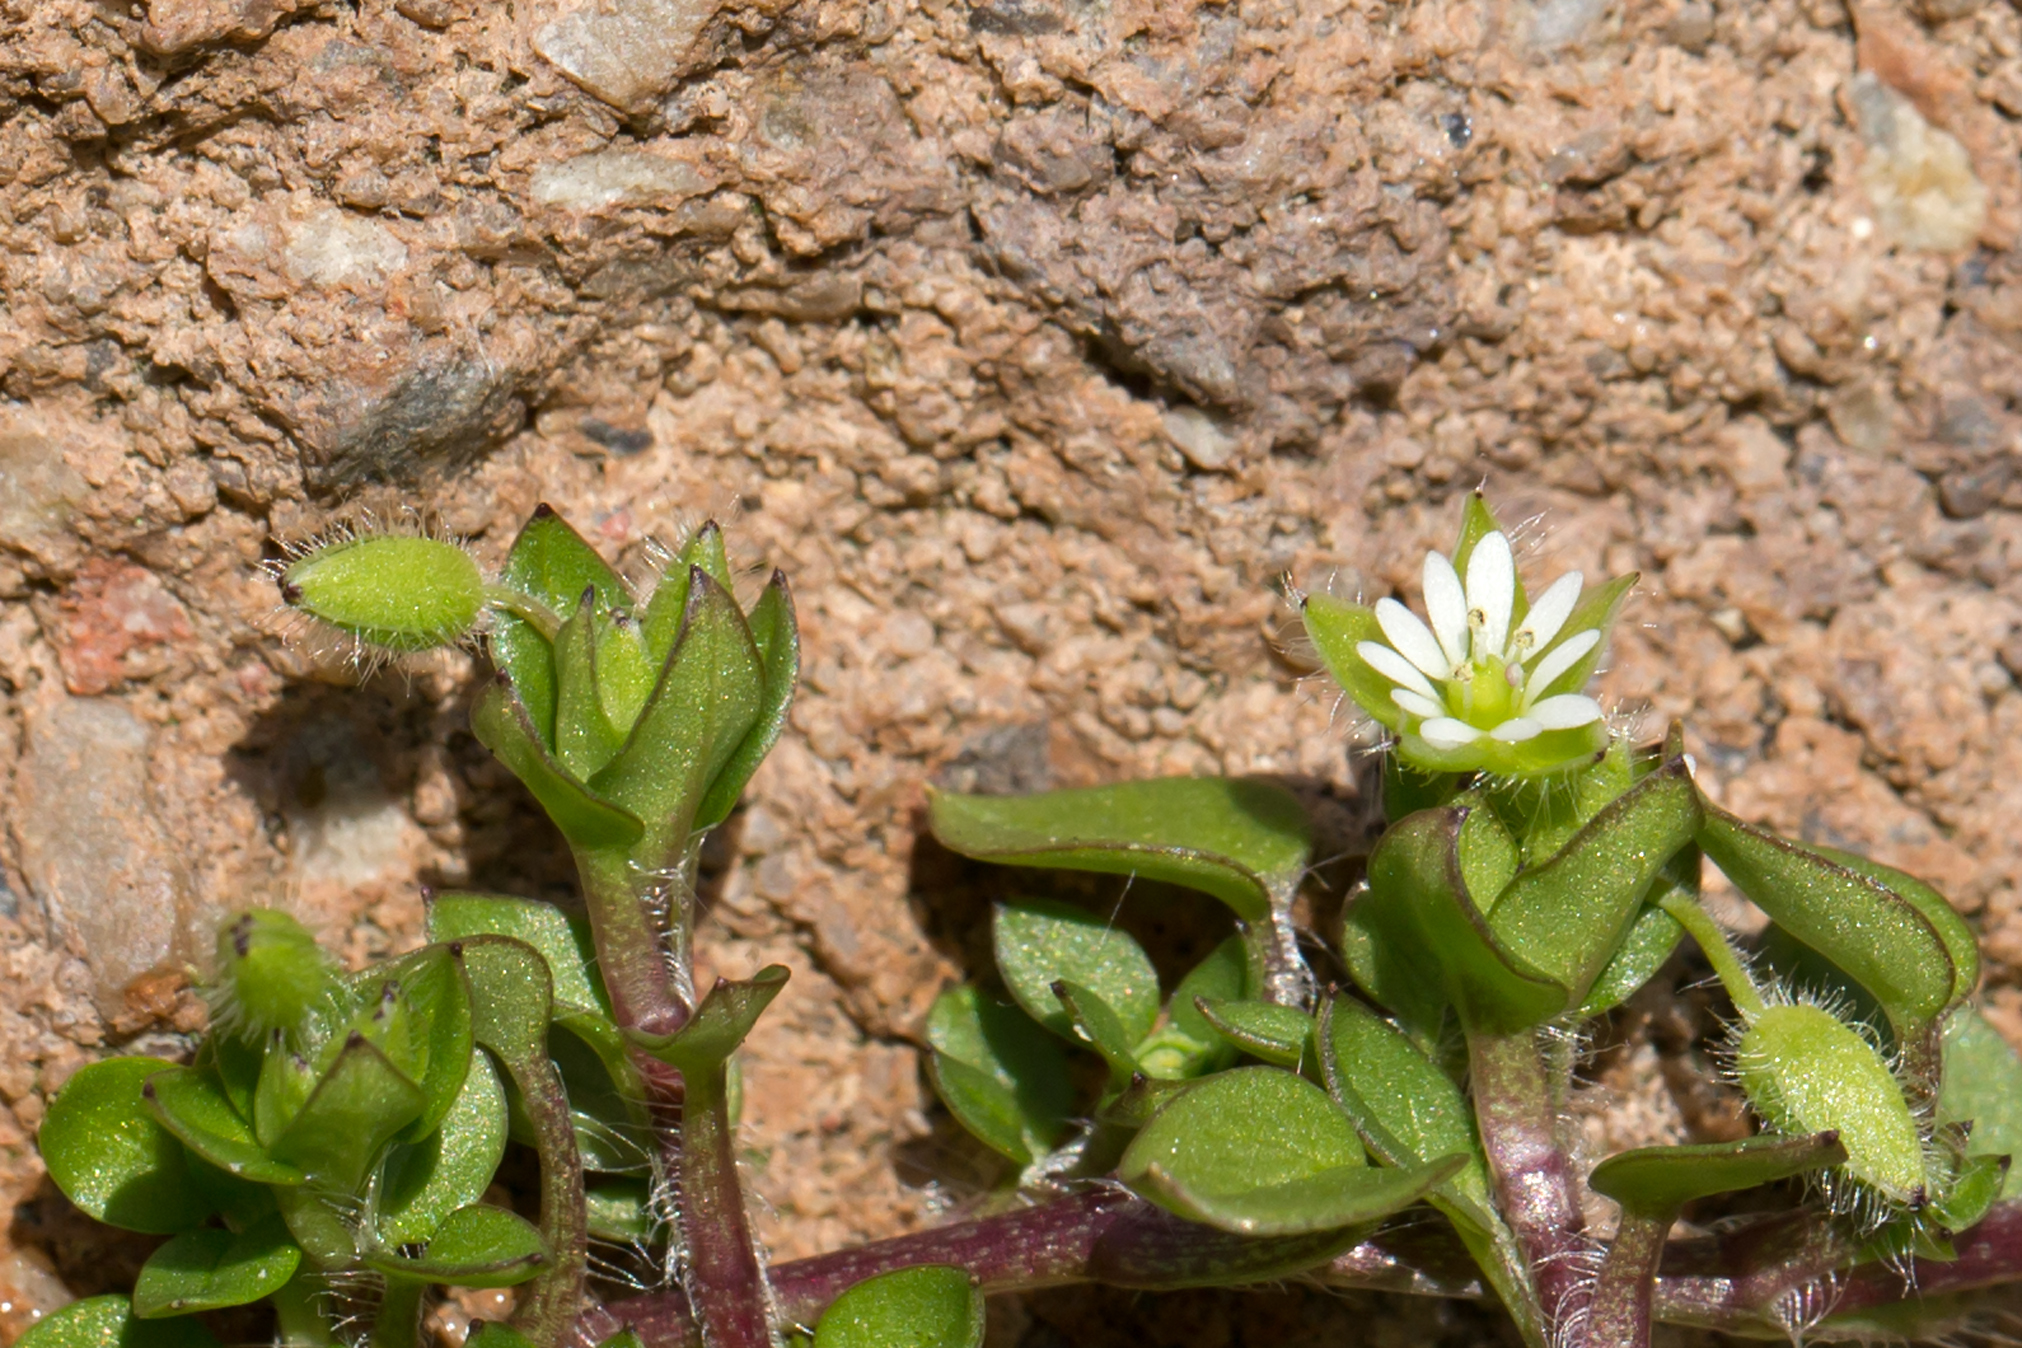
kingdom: Plantae
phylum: Tracheophyta
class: Magnoliopsida
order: Caryophyllales
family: Caryophyllaceae
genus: Stellaria
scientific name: Stellaria media
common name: Common chickweed
